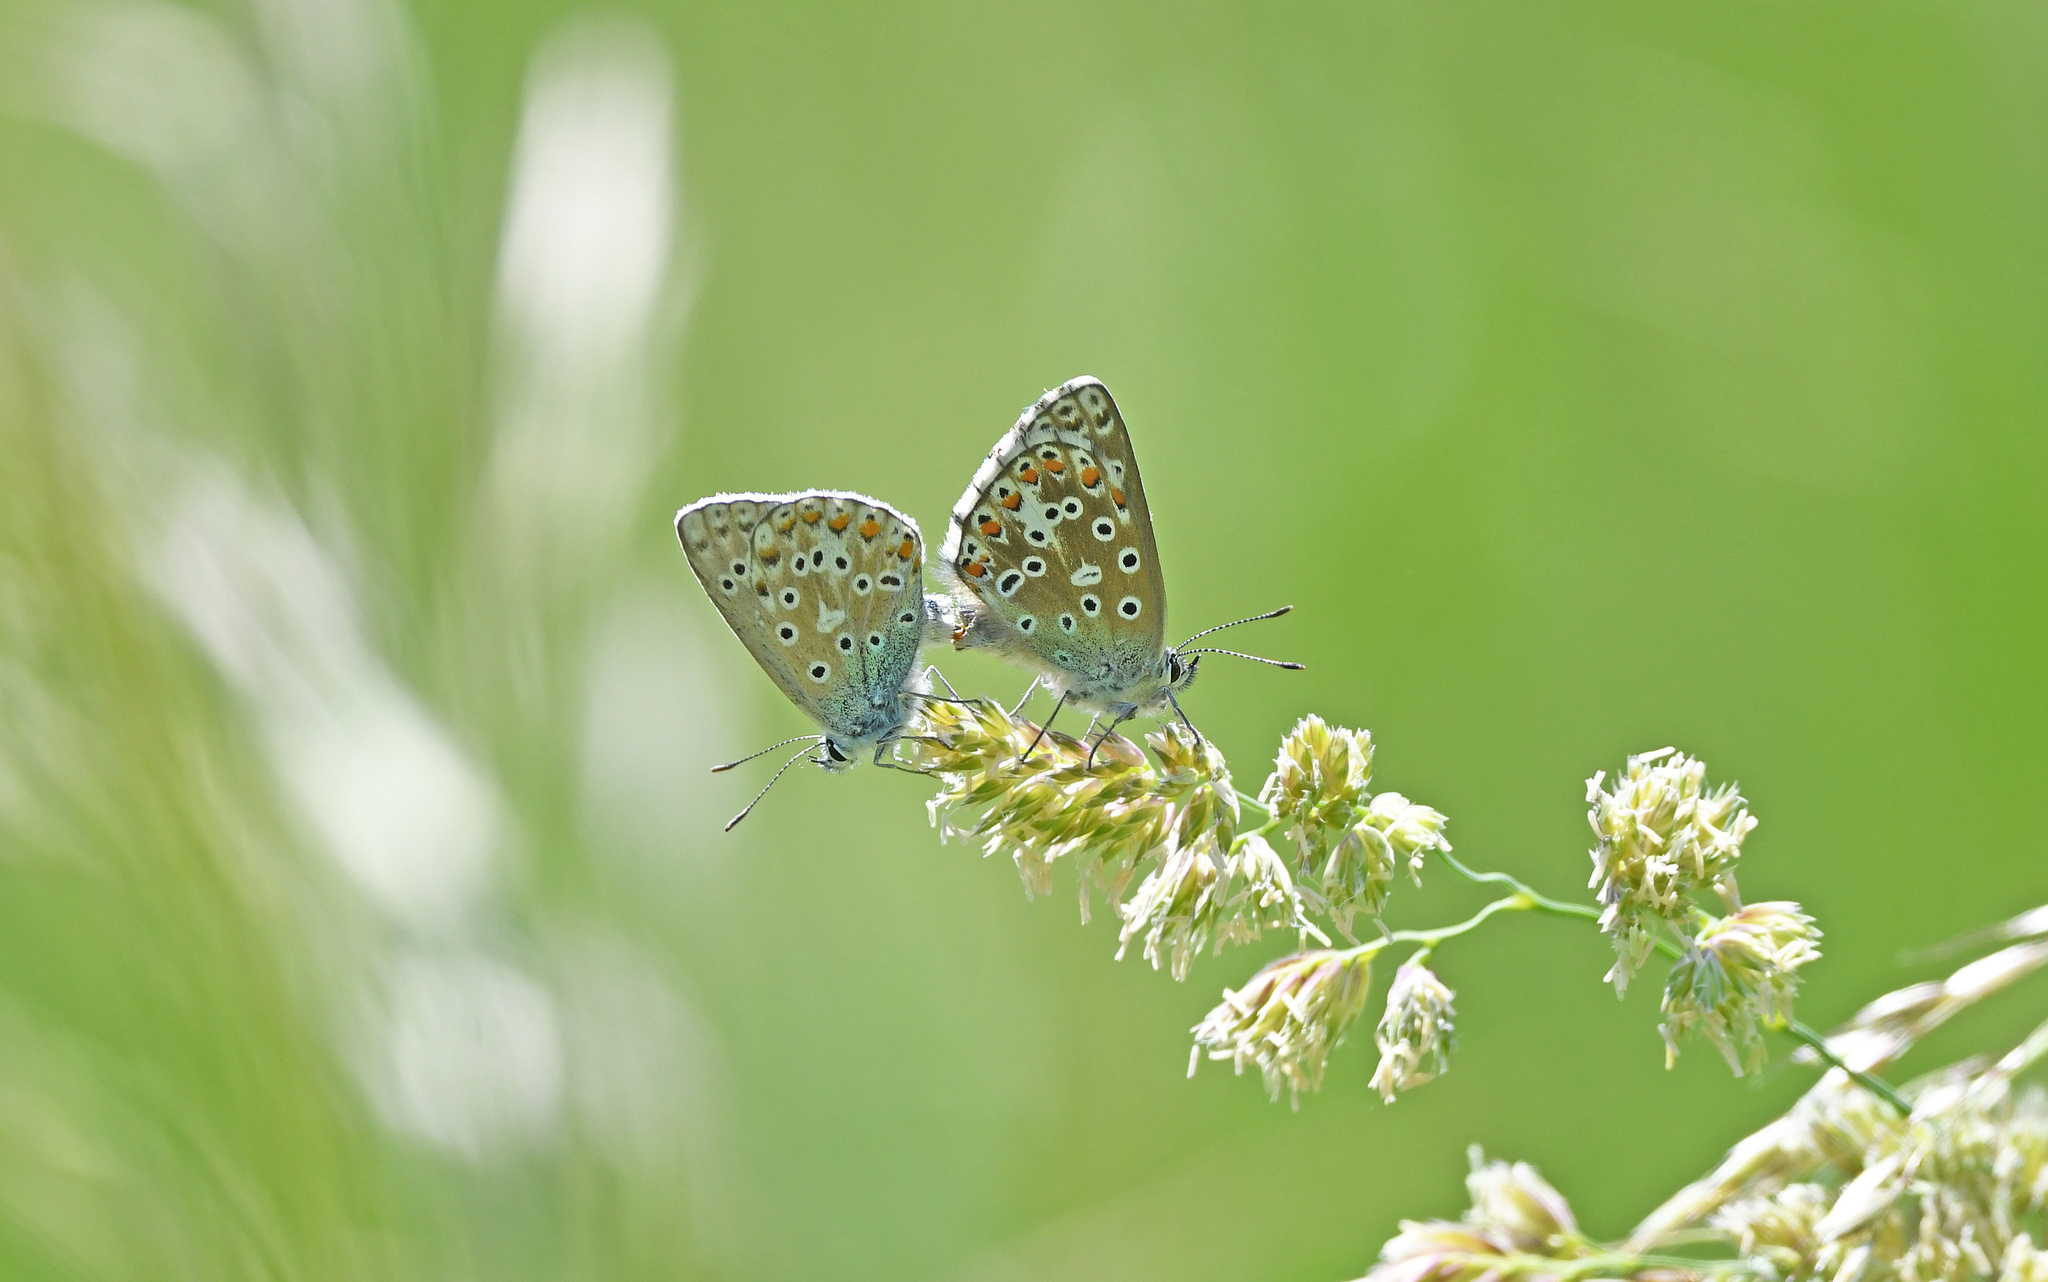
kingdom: Animalia
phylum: Arthropoda
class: Insecta
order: Lepidoptera
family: Lycaenidae
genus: Lysandra
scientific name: Lysandra bellargus
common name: Adonis blue
